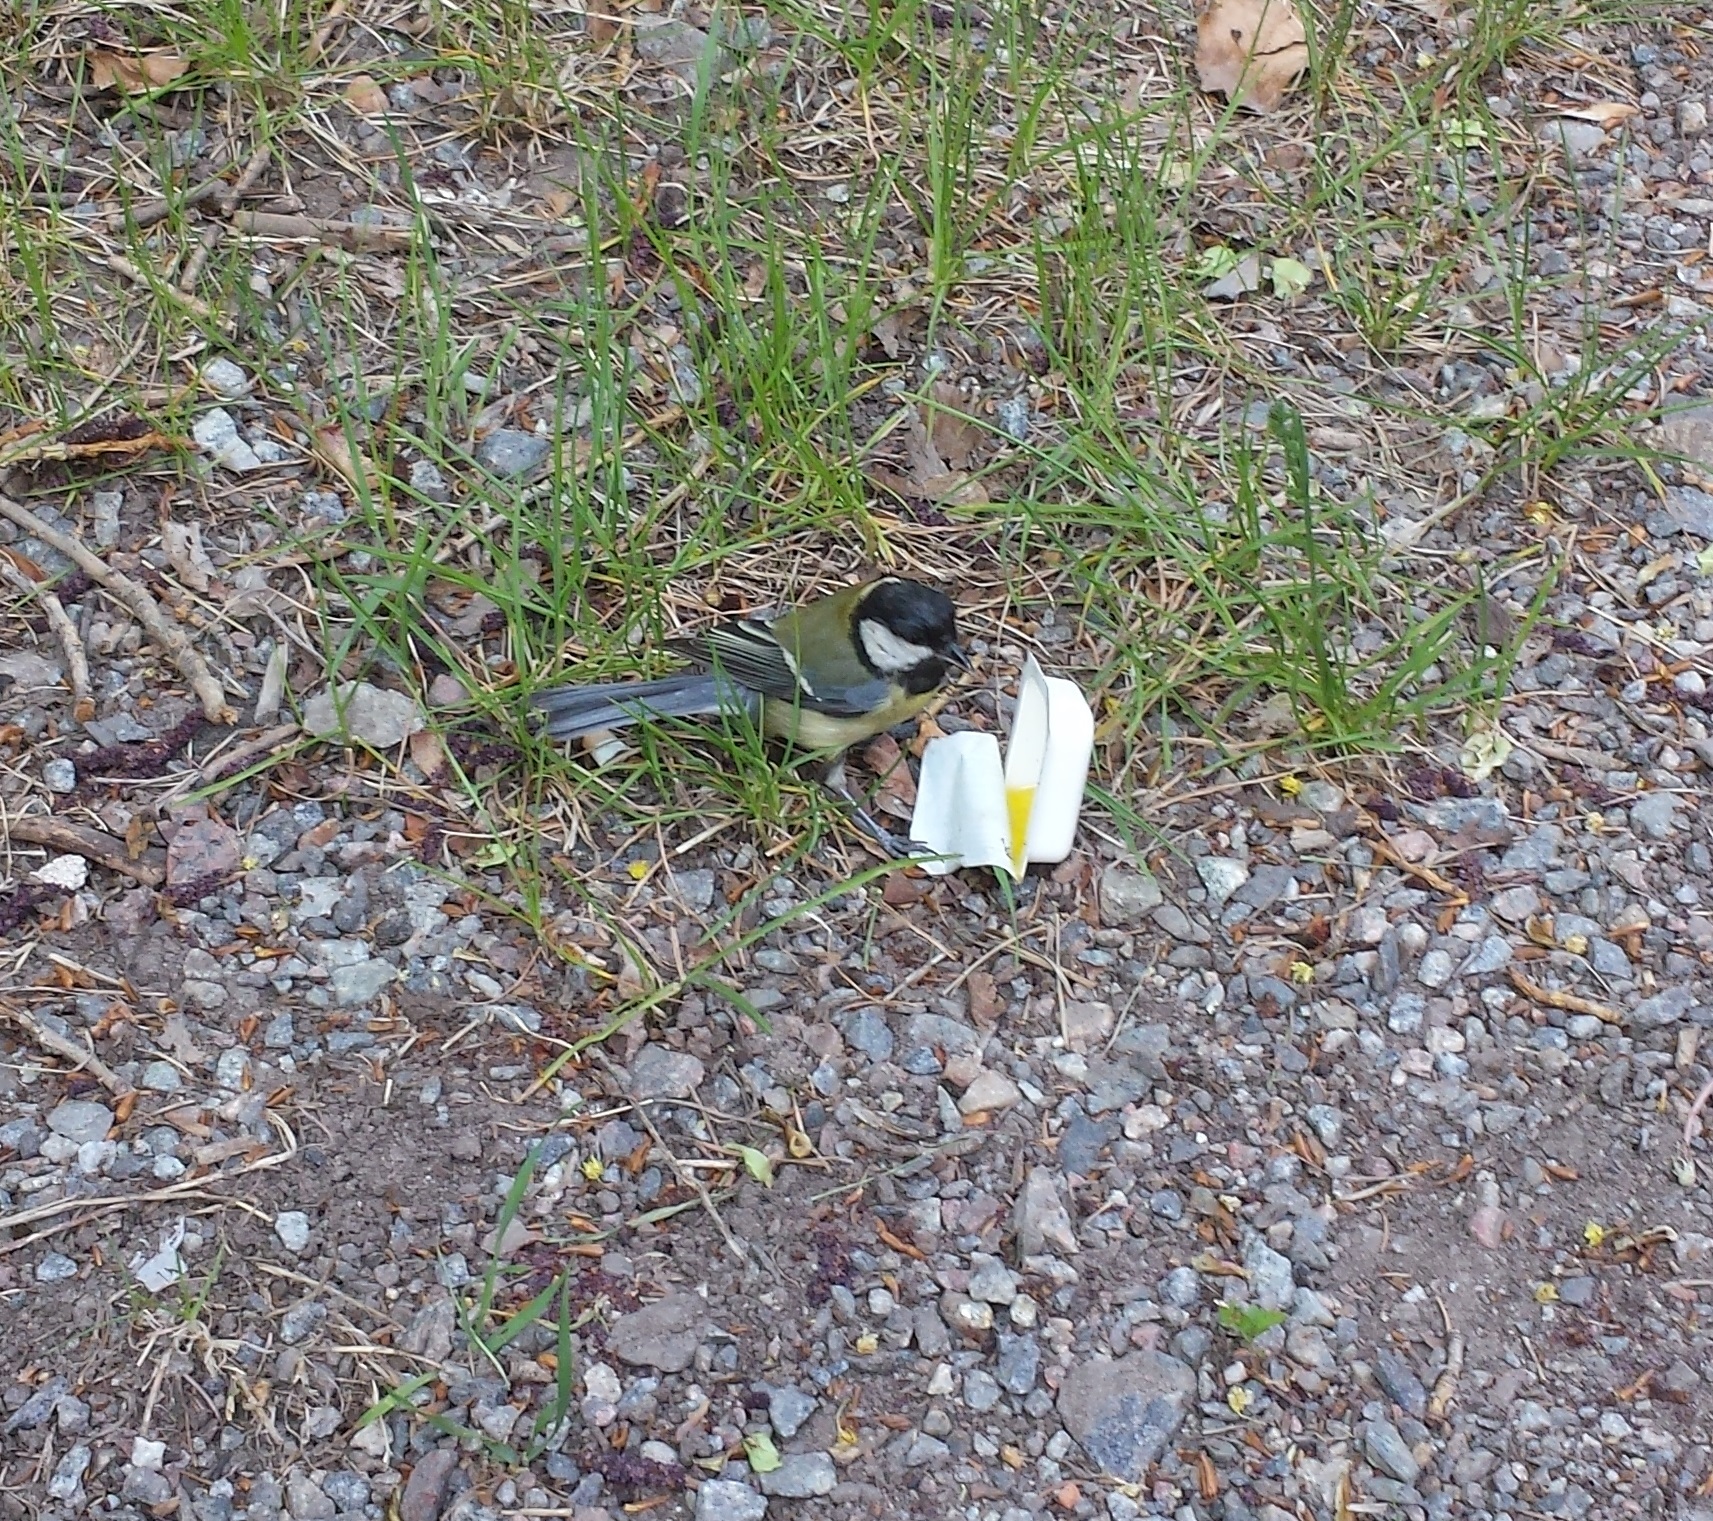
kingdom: Animalia
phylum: Chordata
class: Aves
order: Passeriformes
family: Paridae
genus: Parus
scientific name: Parus major
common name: Great tit
